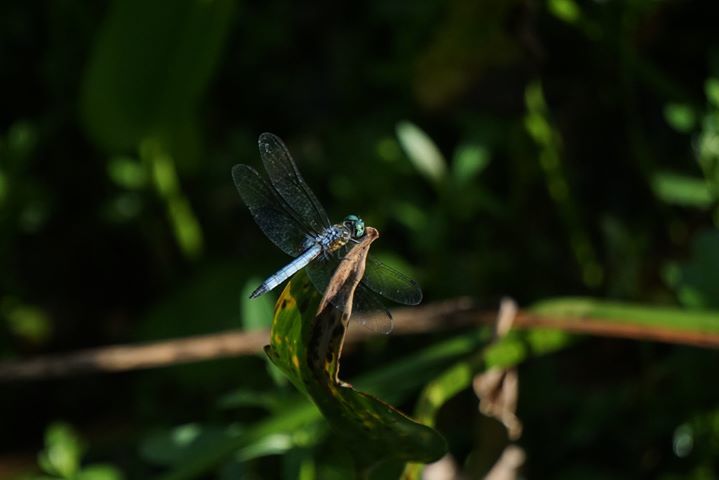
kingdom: Animalia
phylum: Arthropoda
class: Insecta
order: Odonata
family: Libellulidae
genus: Pachydiplax
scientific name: Pachydiplax longipennis
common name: Blue dasher
